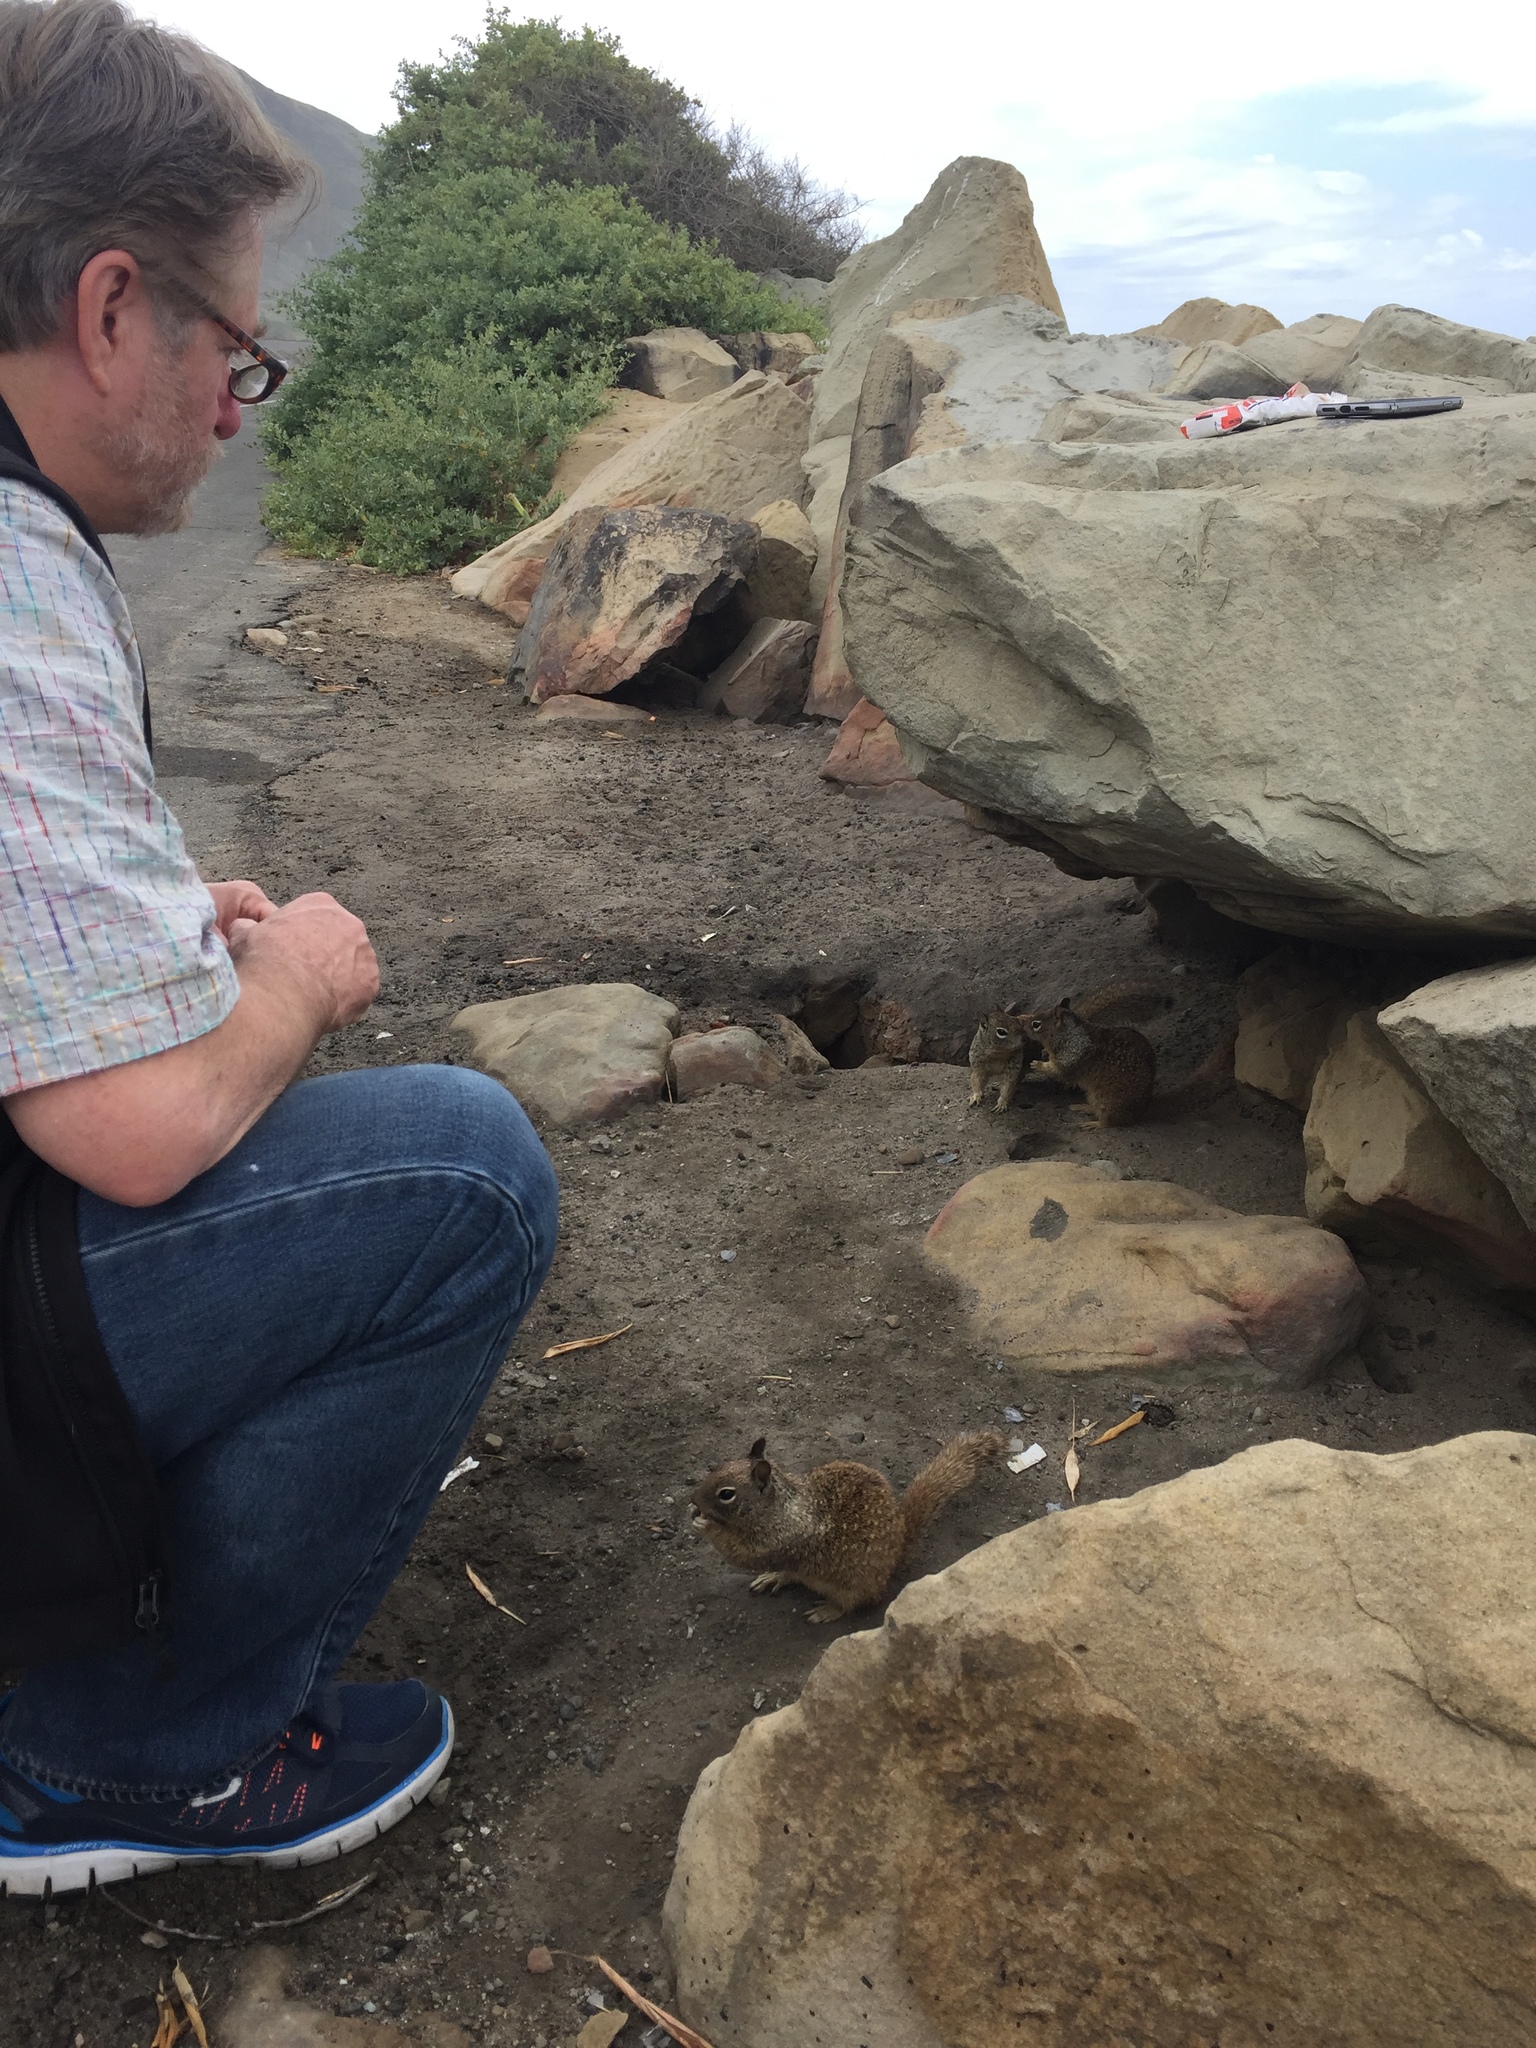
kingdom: Animalia
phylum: Chordata
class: Mammalia
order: Rodentia
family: Sciuridae
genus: Otospermophilus
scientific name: Otospermophilus beecheyi
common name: California ground squirrel
